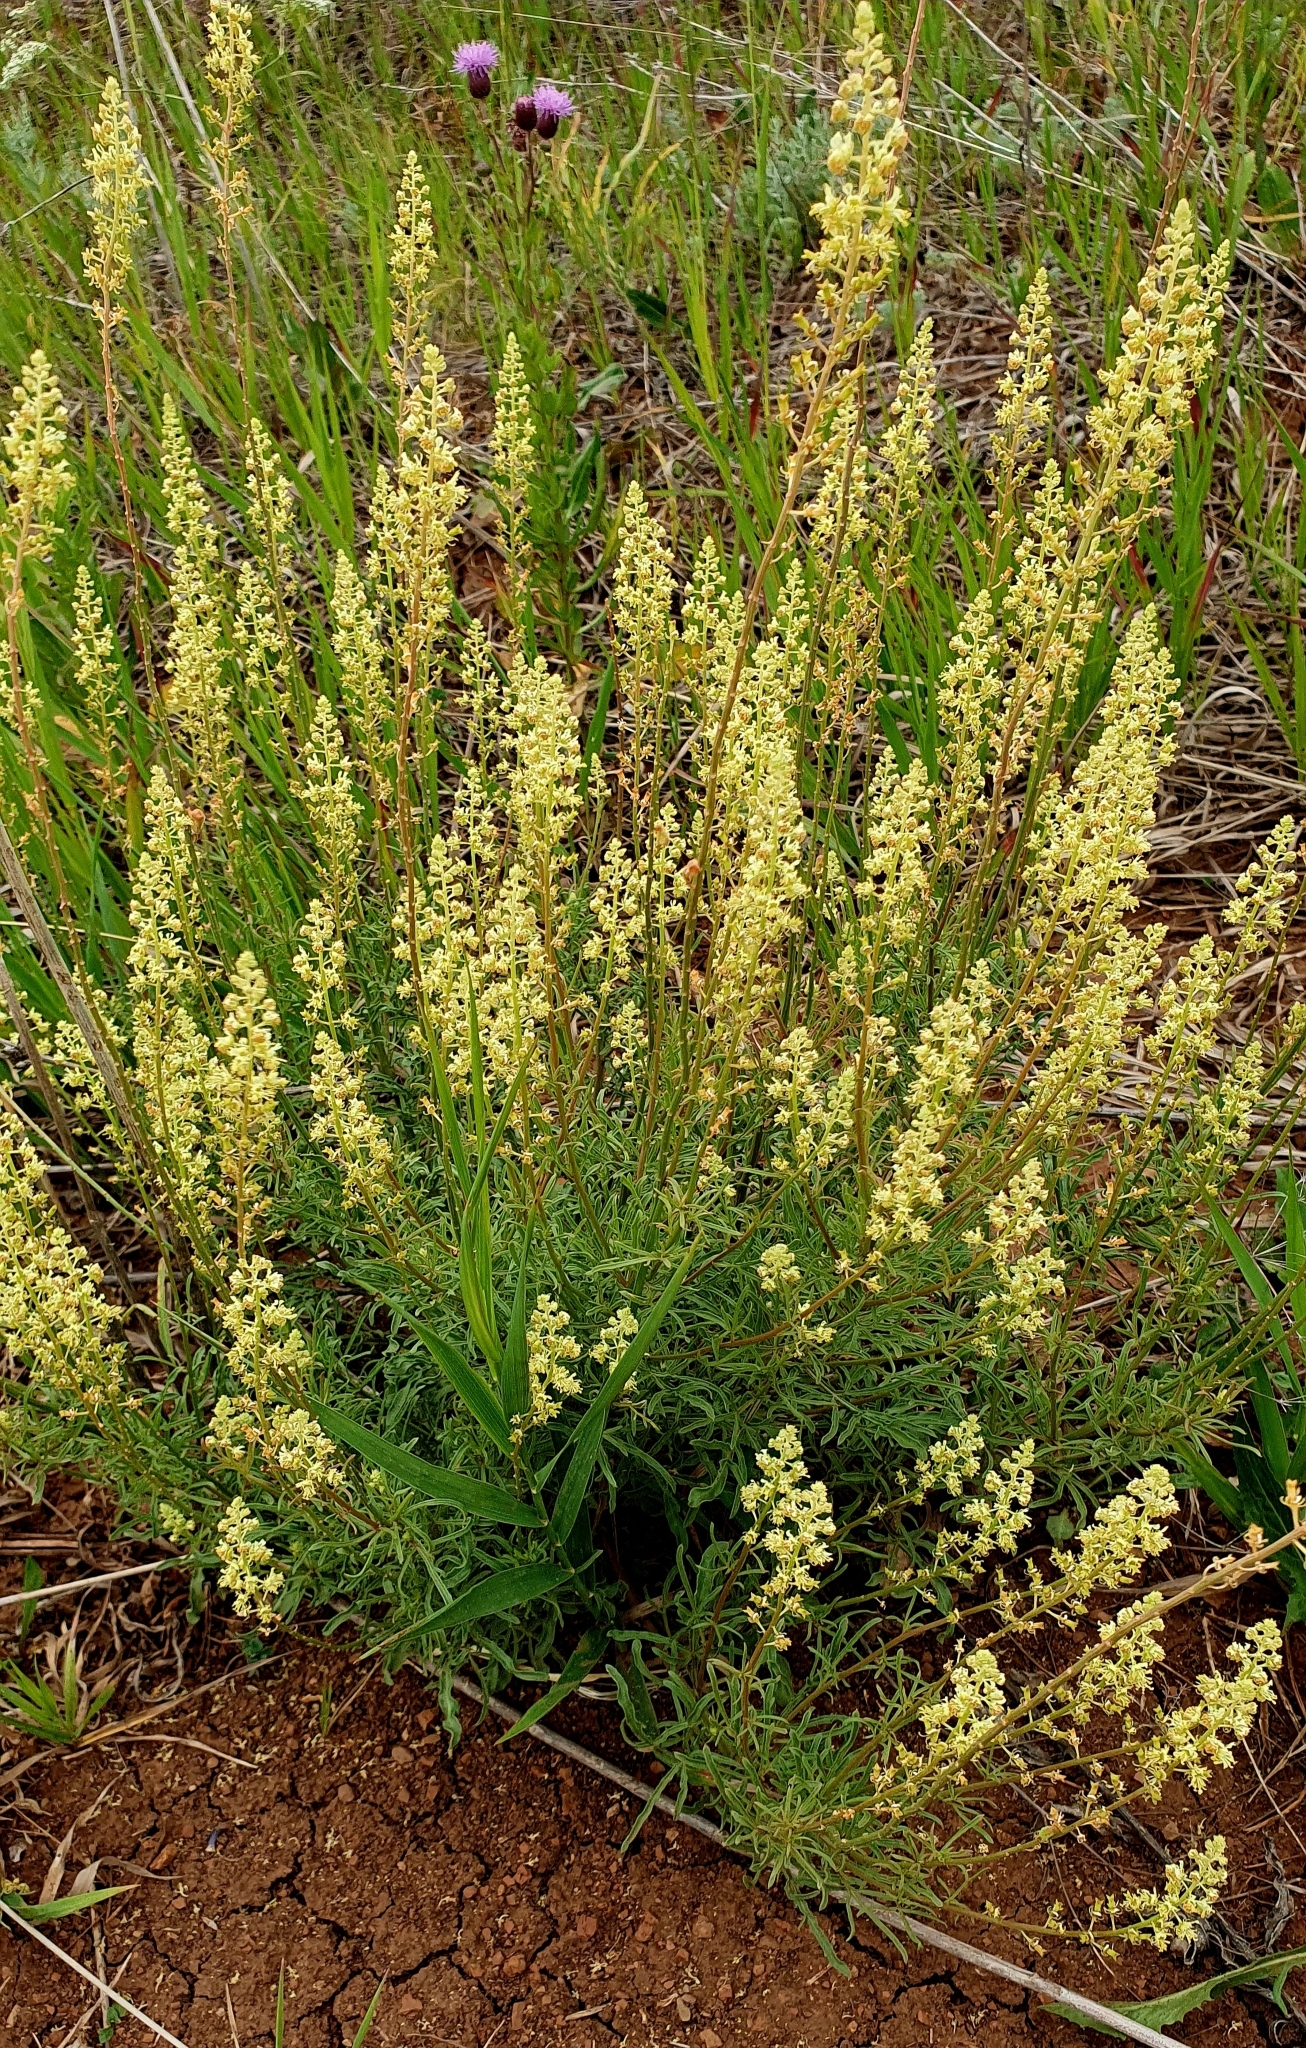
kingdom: Plantae
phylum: Tracheophyta
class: Magnoliopsida
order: Brassicales
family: Resedaceae
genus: Reseda
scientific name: Reseda lutea
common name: Wild mignonette
